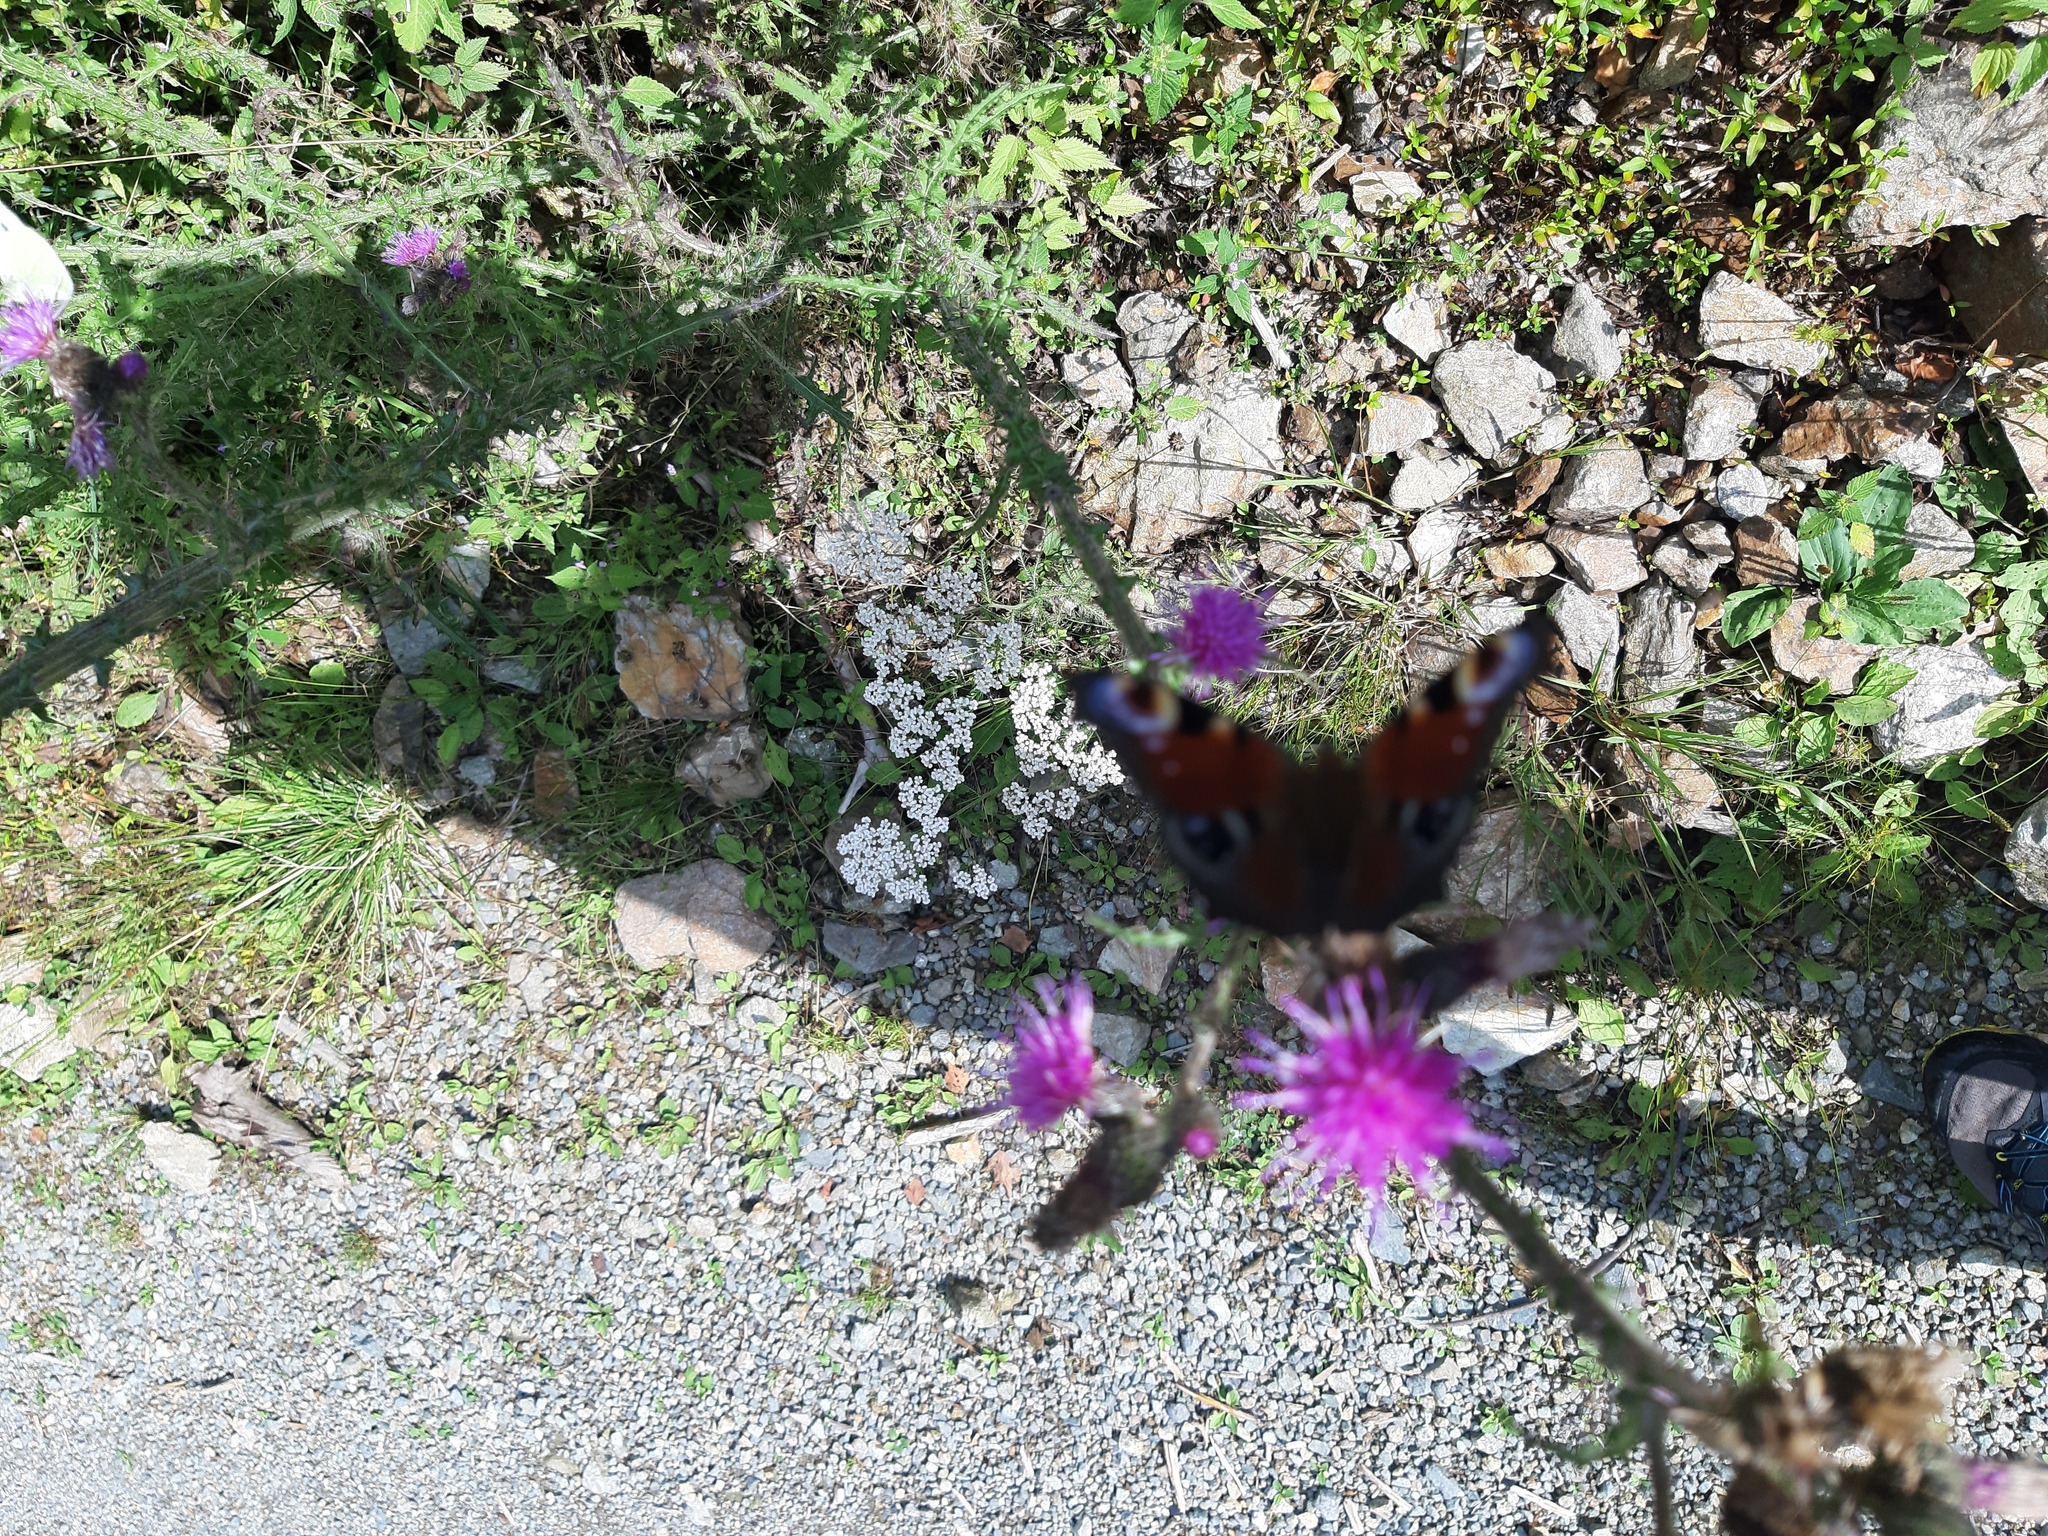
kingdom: Animalia
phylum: Arthropoda
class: Insecta
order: Lepidoptera
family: Nymphalidae
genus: Aglais
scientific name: Aglais io
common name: Peacock
